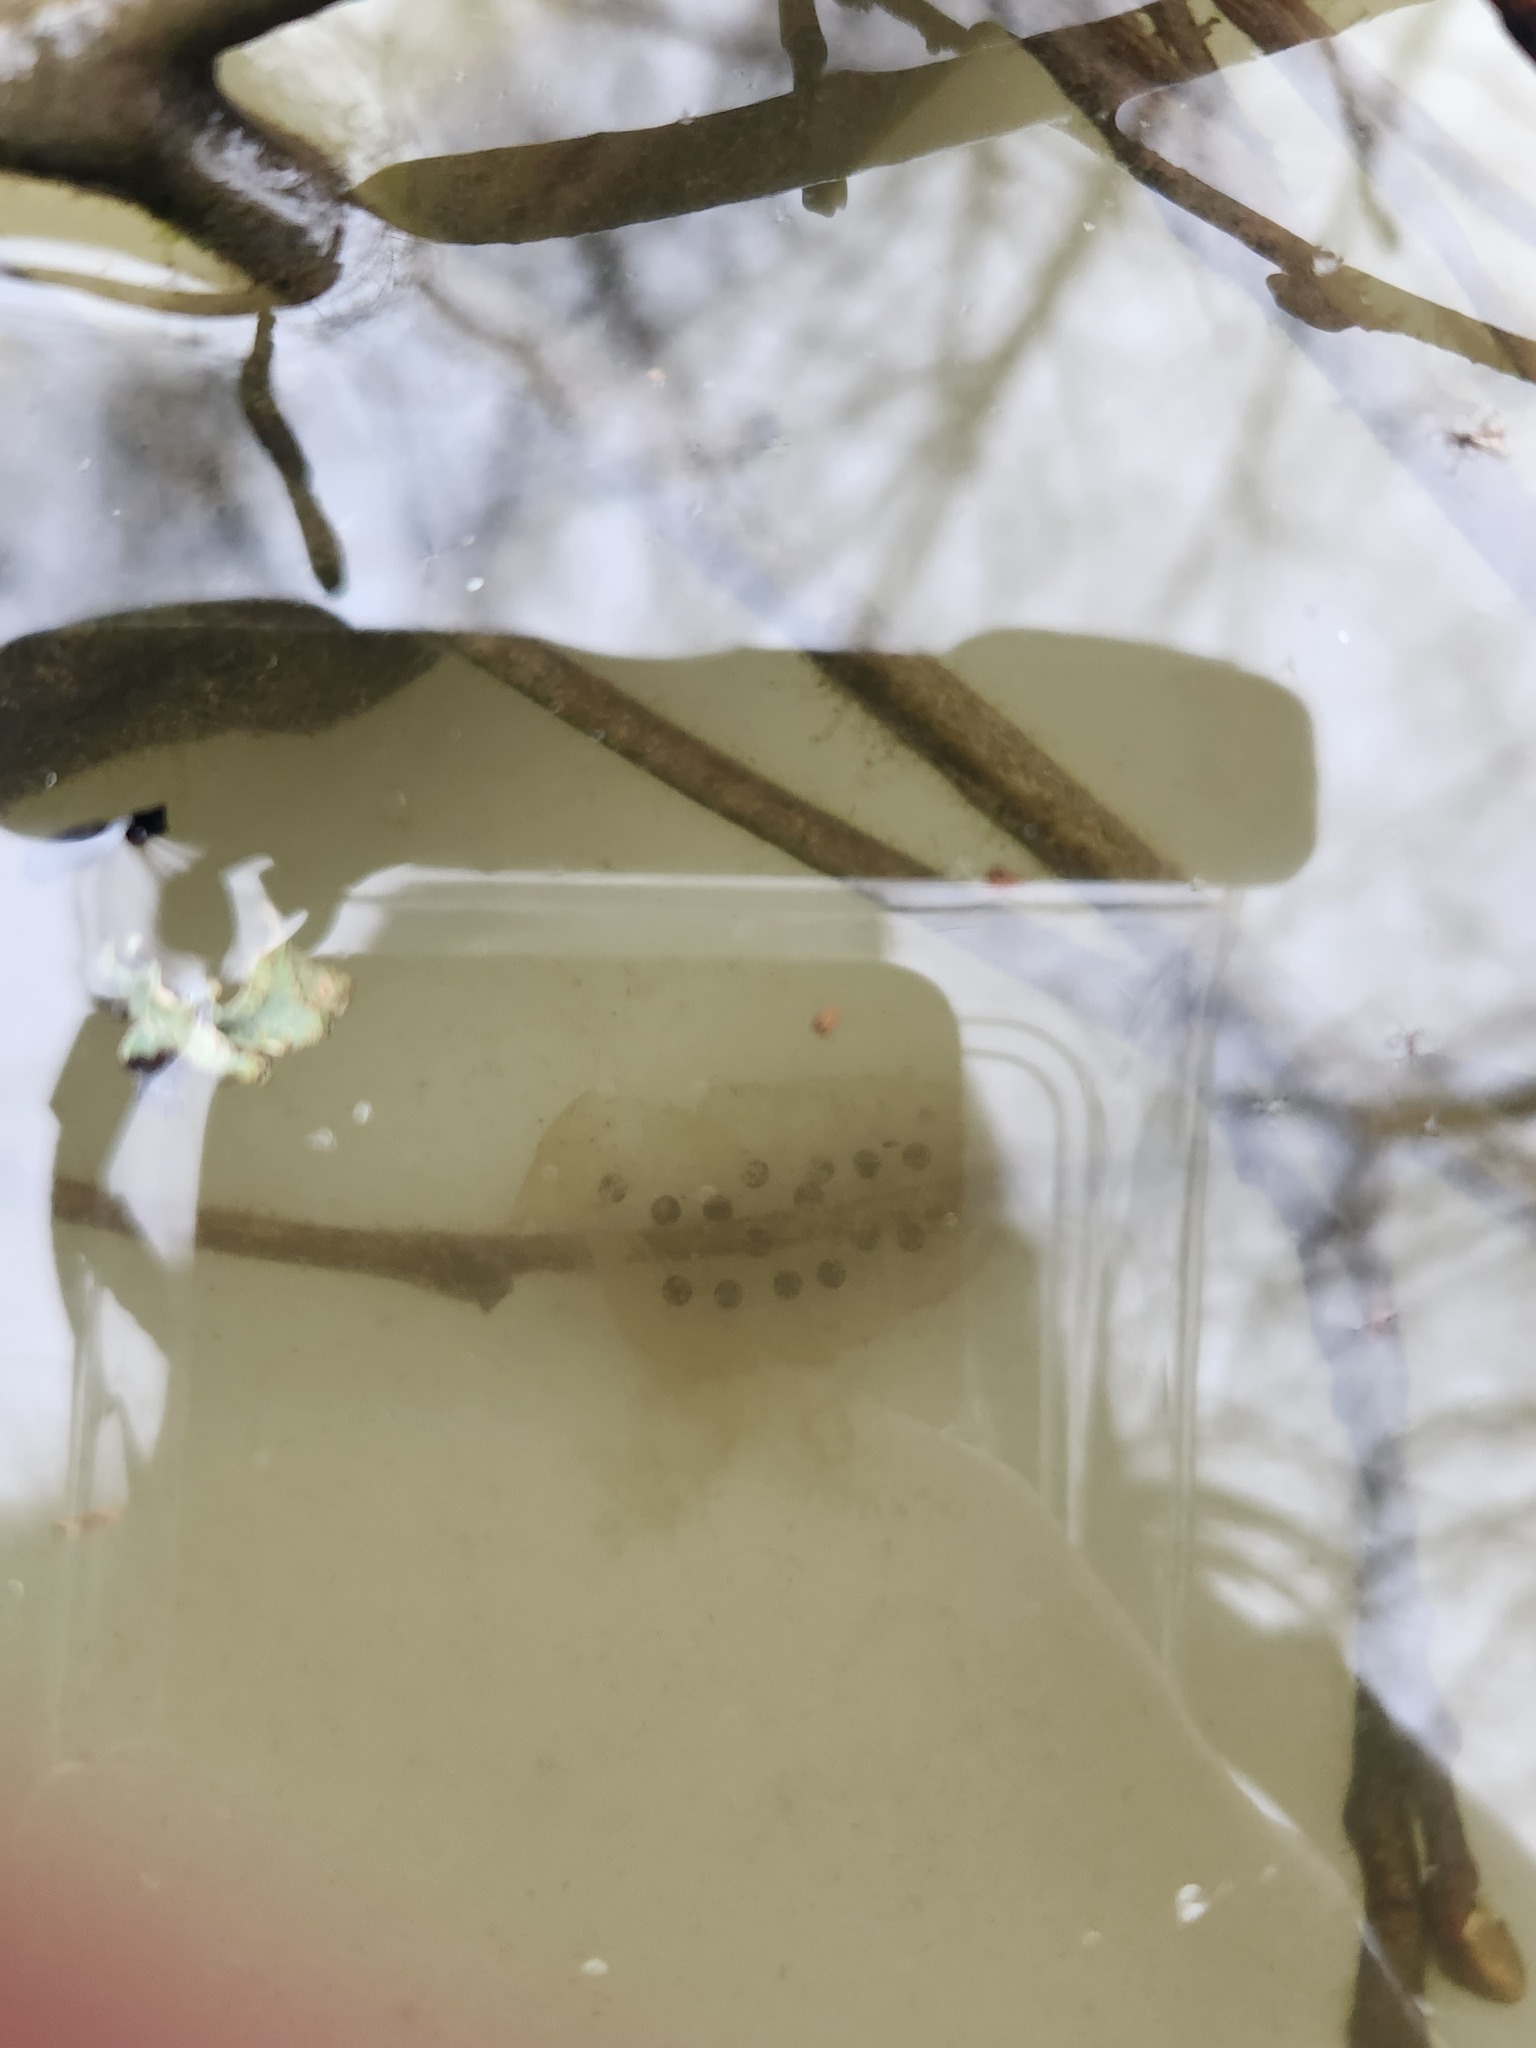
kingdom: Animalia
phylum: Chordata
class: Amphibia
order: Caudata
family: Ambystomatidae
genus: Ambystoma
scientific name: Ambystoma macrodactylum
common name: Long-toed salamander
